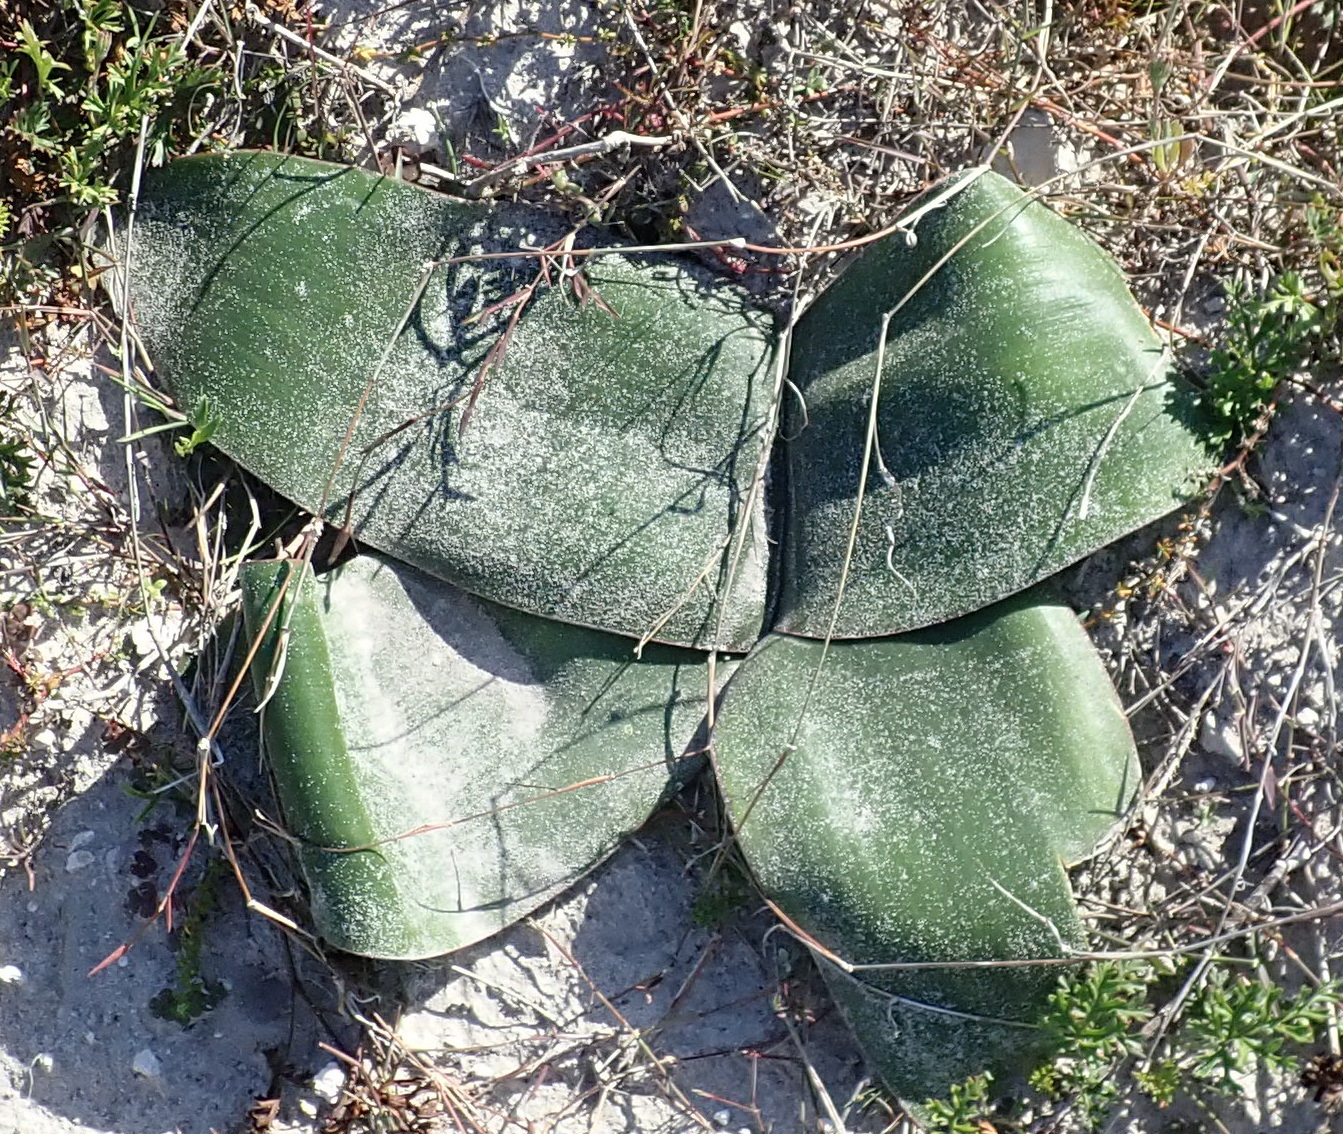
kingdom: Plantae
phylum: Tracheophyta
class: Liliopsida
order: Asparagales
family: Amaryllidaceae
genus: Brunsvigia
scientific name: Brunsvigia orientalis
